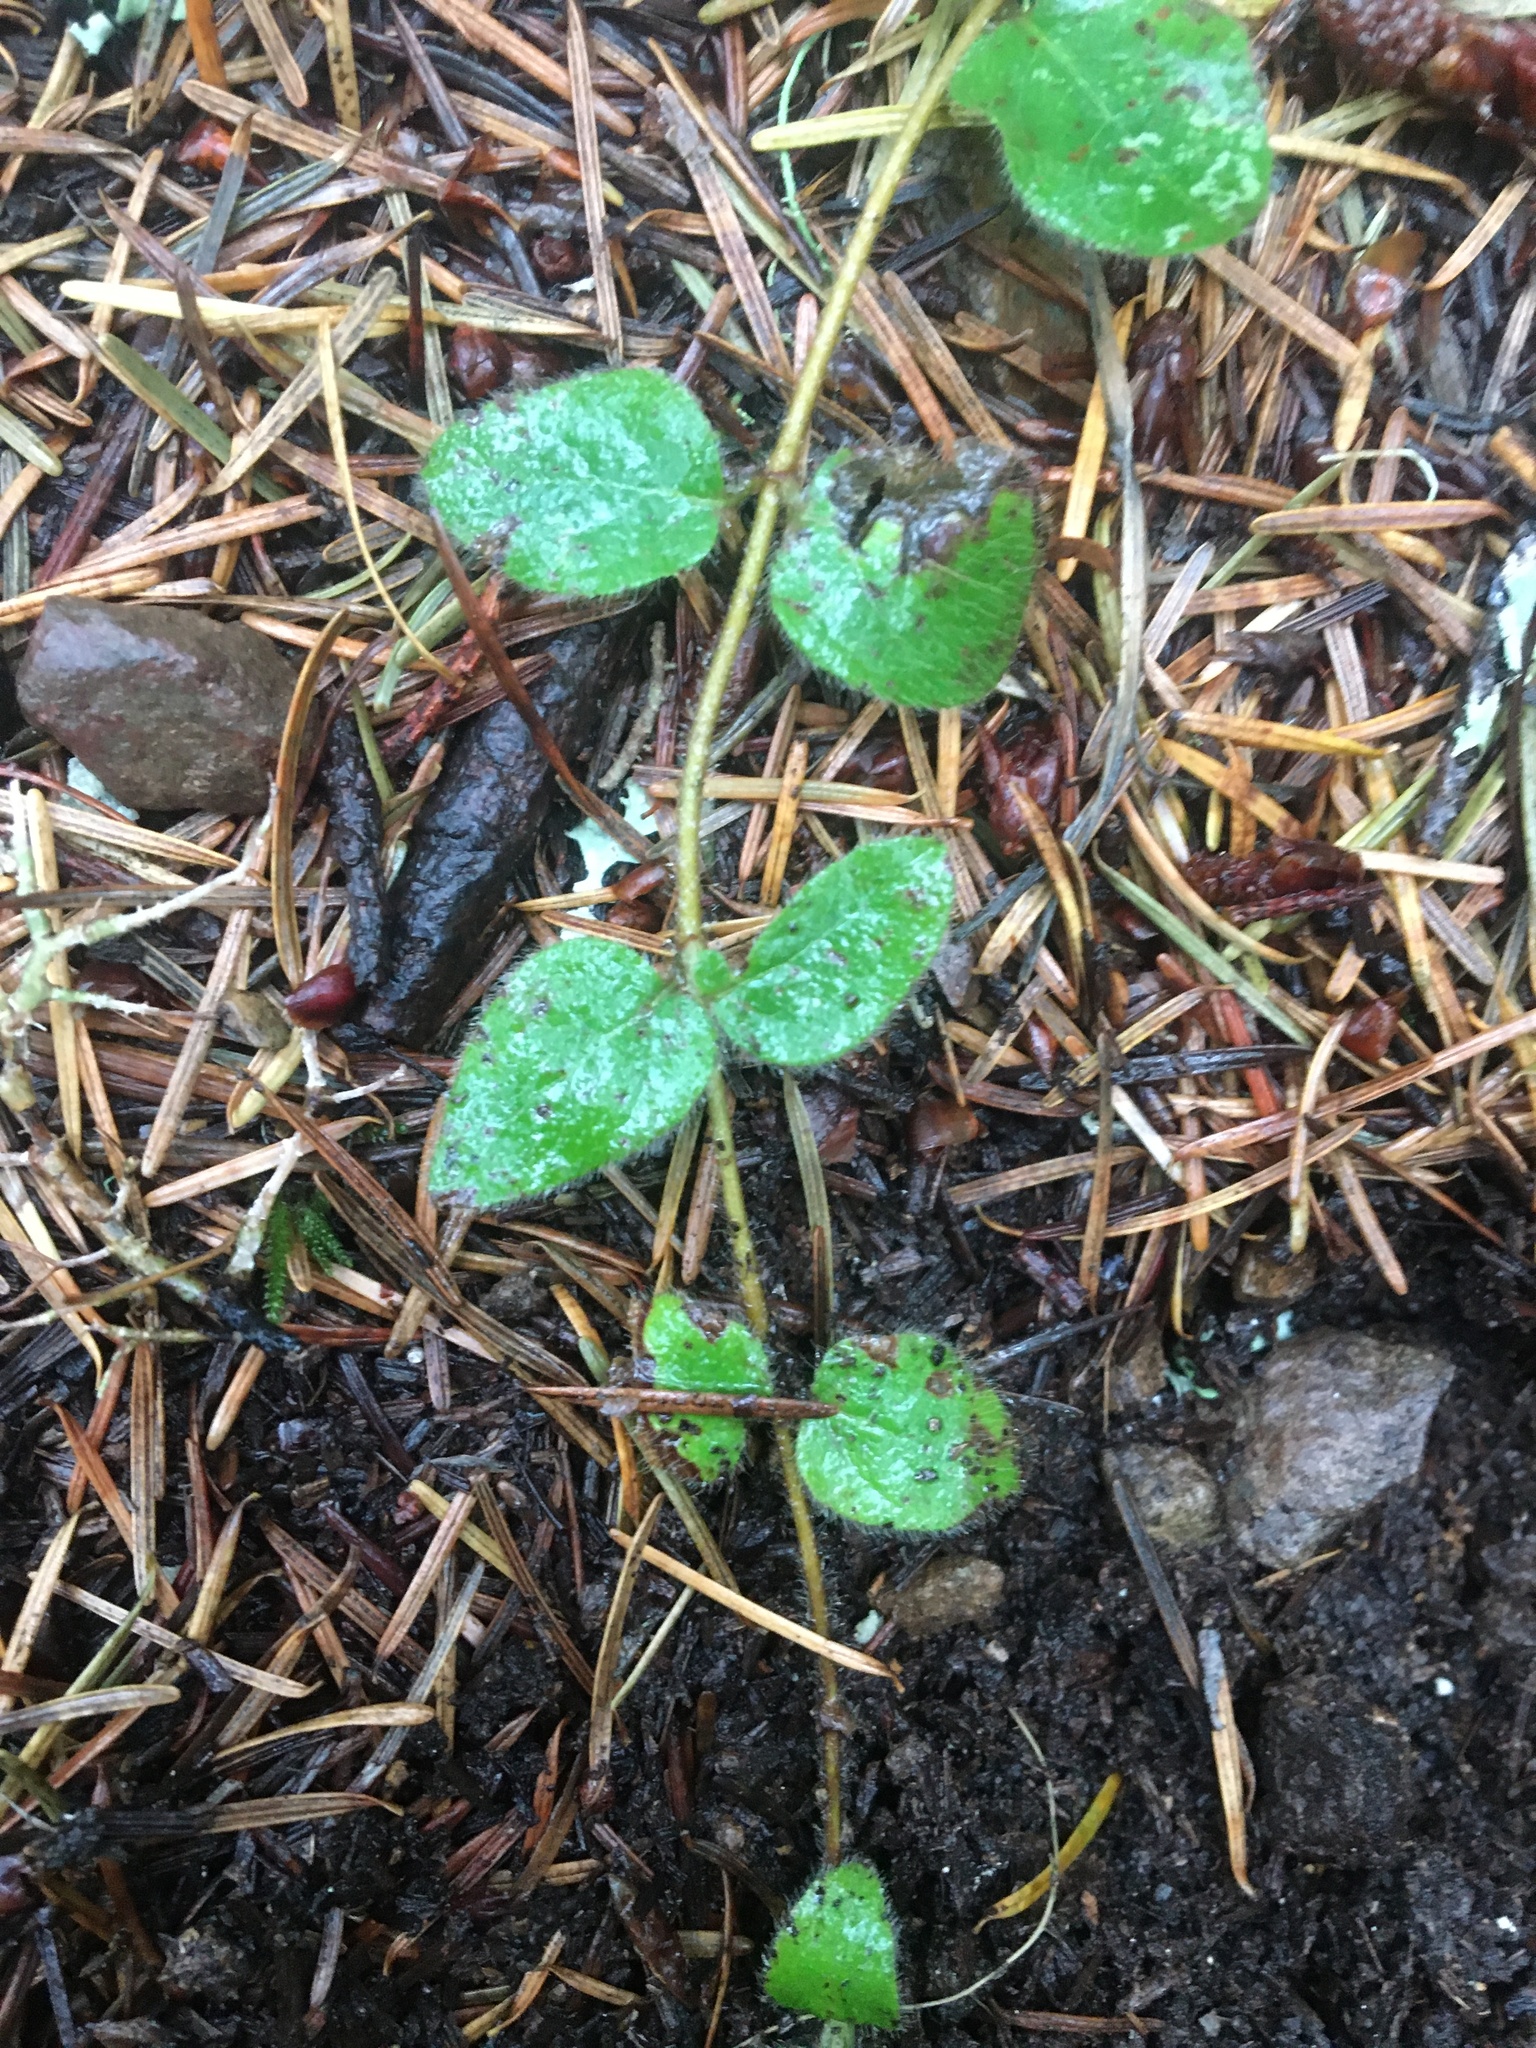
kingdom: Plantae
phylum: Tracheophyta
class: Magnoliopsida
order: Dipsacales
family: Caprifoliaceae
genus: Lonicera
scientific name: Lonicera hispidula
